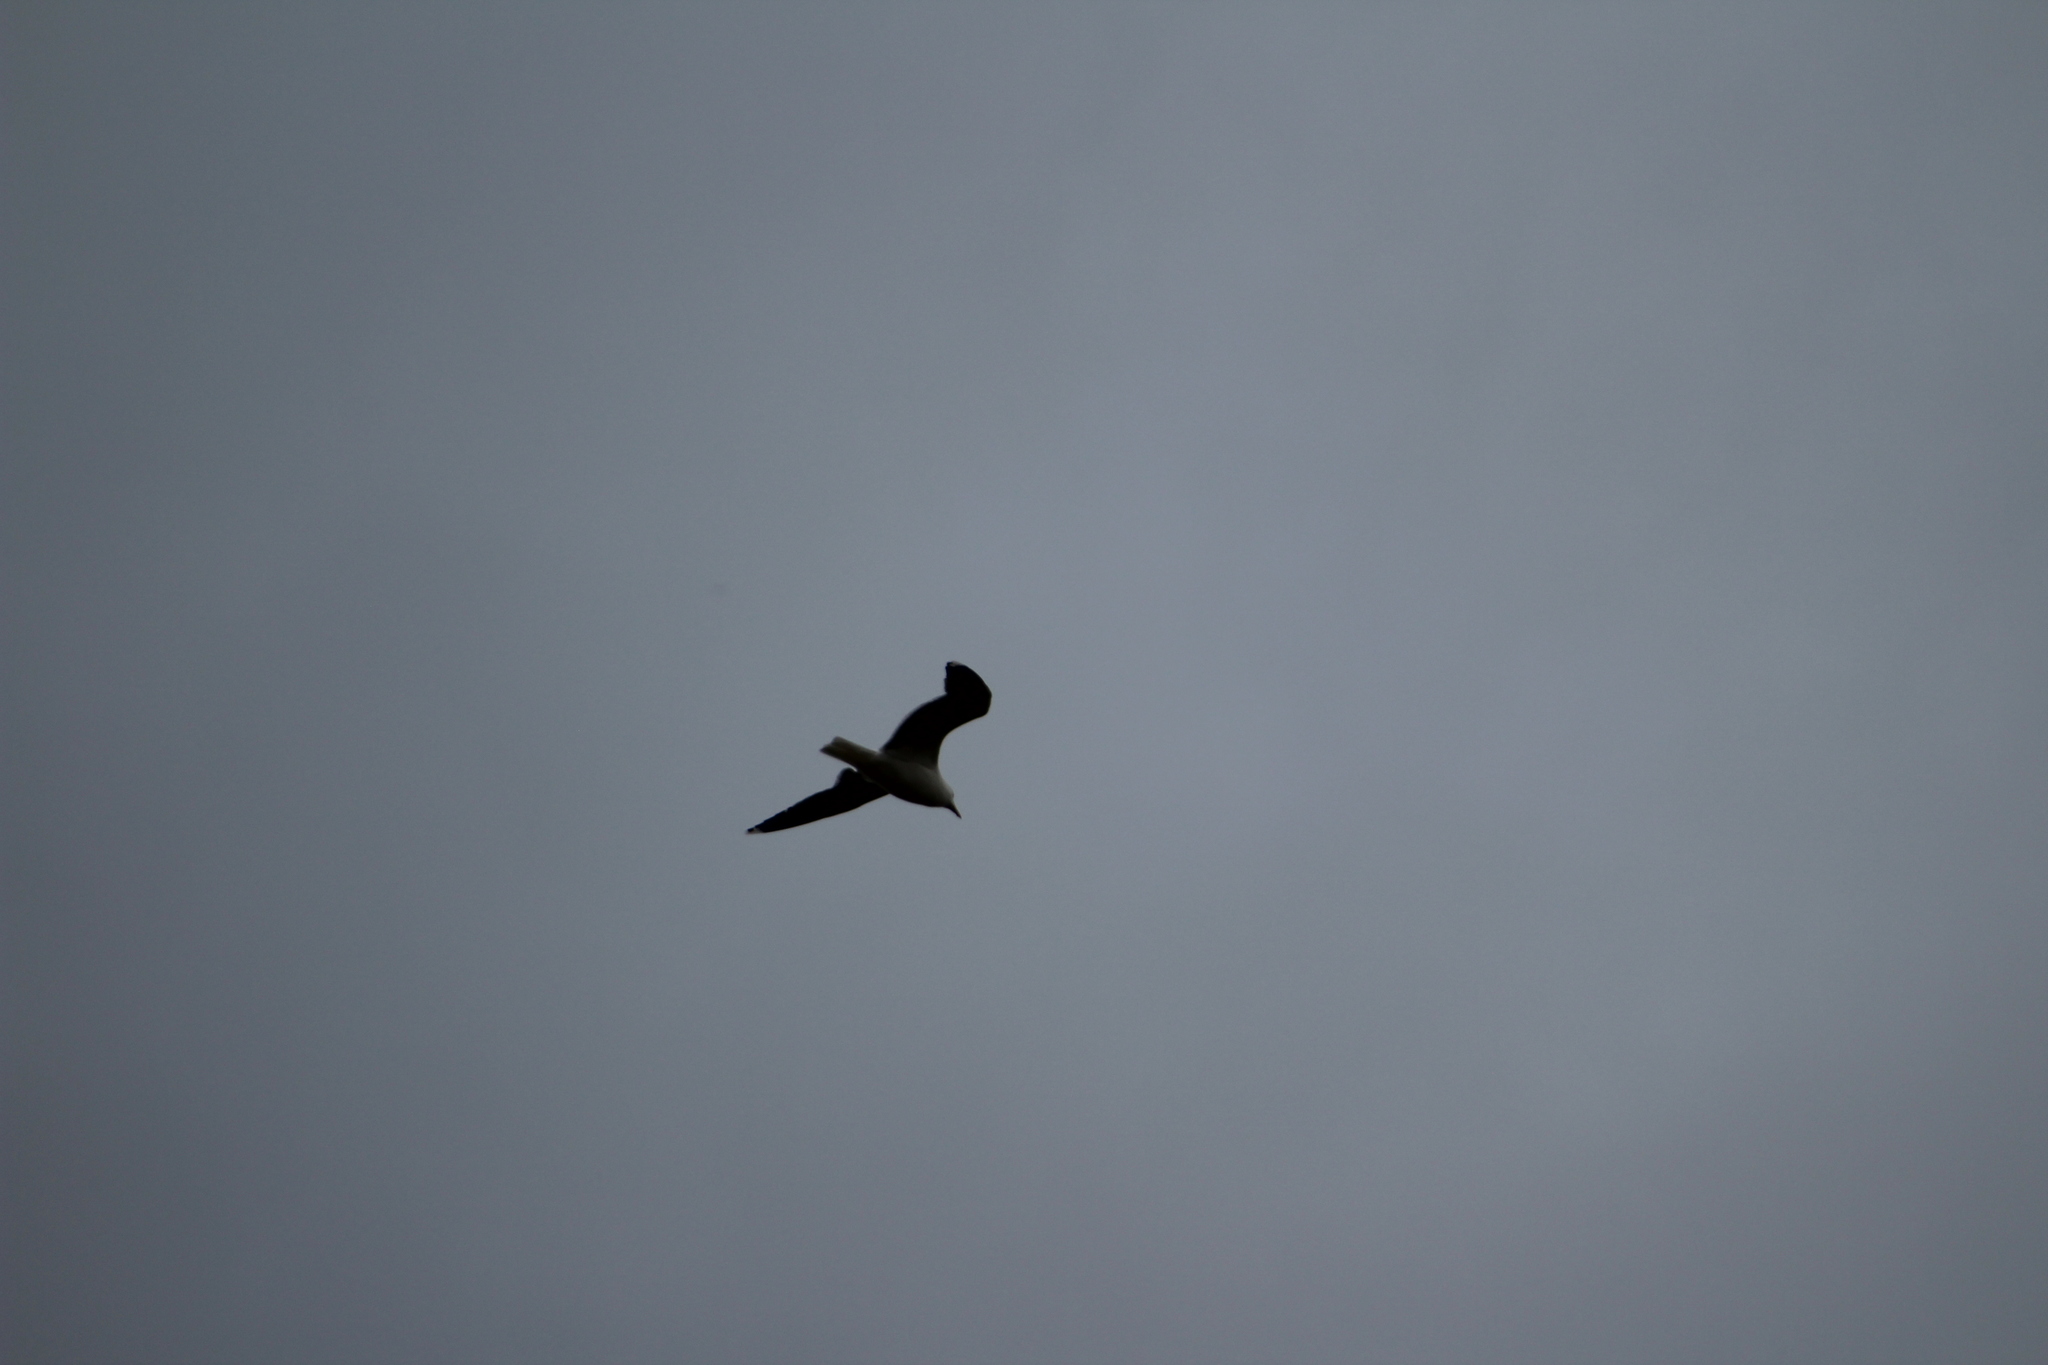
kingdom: Animalia
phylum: Chordata
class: Aves
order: Charadriiformes
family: Laridae
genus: Larus
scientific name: Larus californicus
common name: California gull
